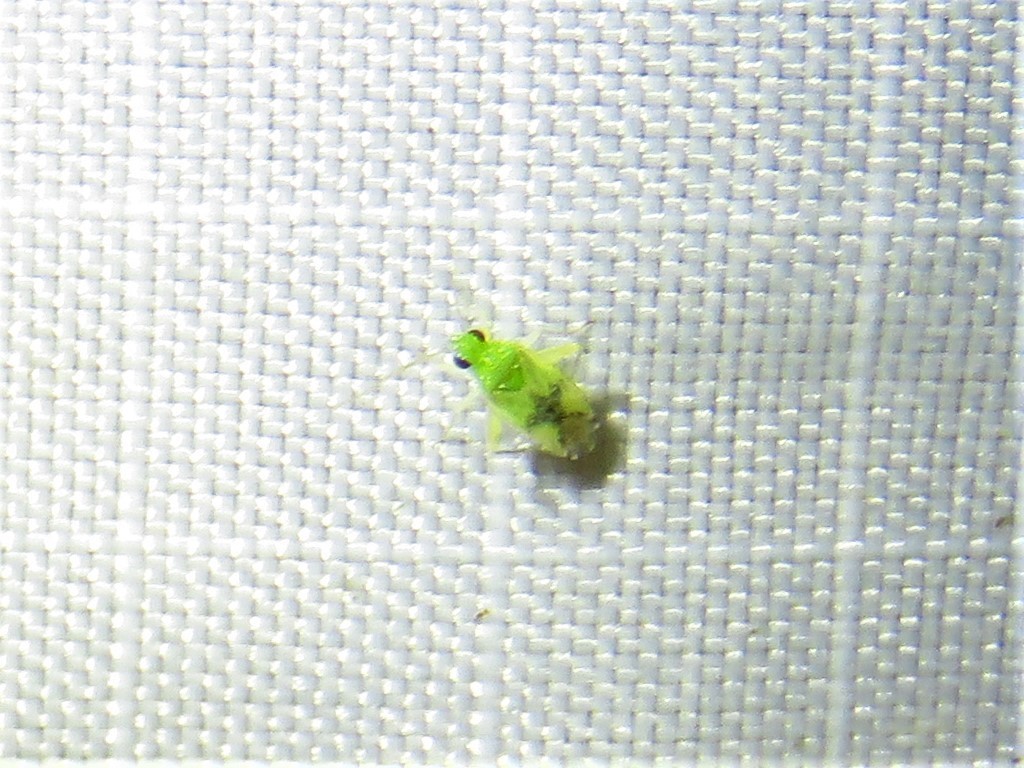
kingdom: Animalia
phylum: Arthropoda
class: Insecta
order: Hemiptera
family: Miridae
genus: Keltonia
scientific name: Keltonia tuckeri
